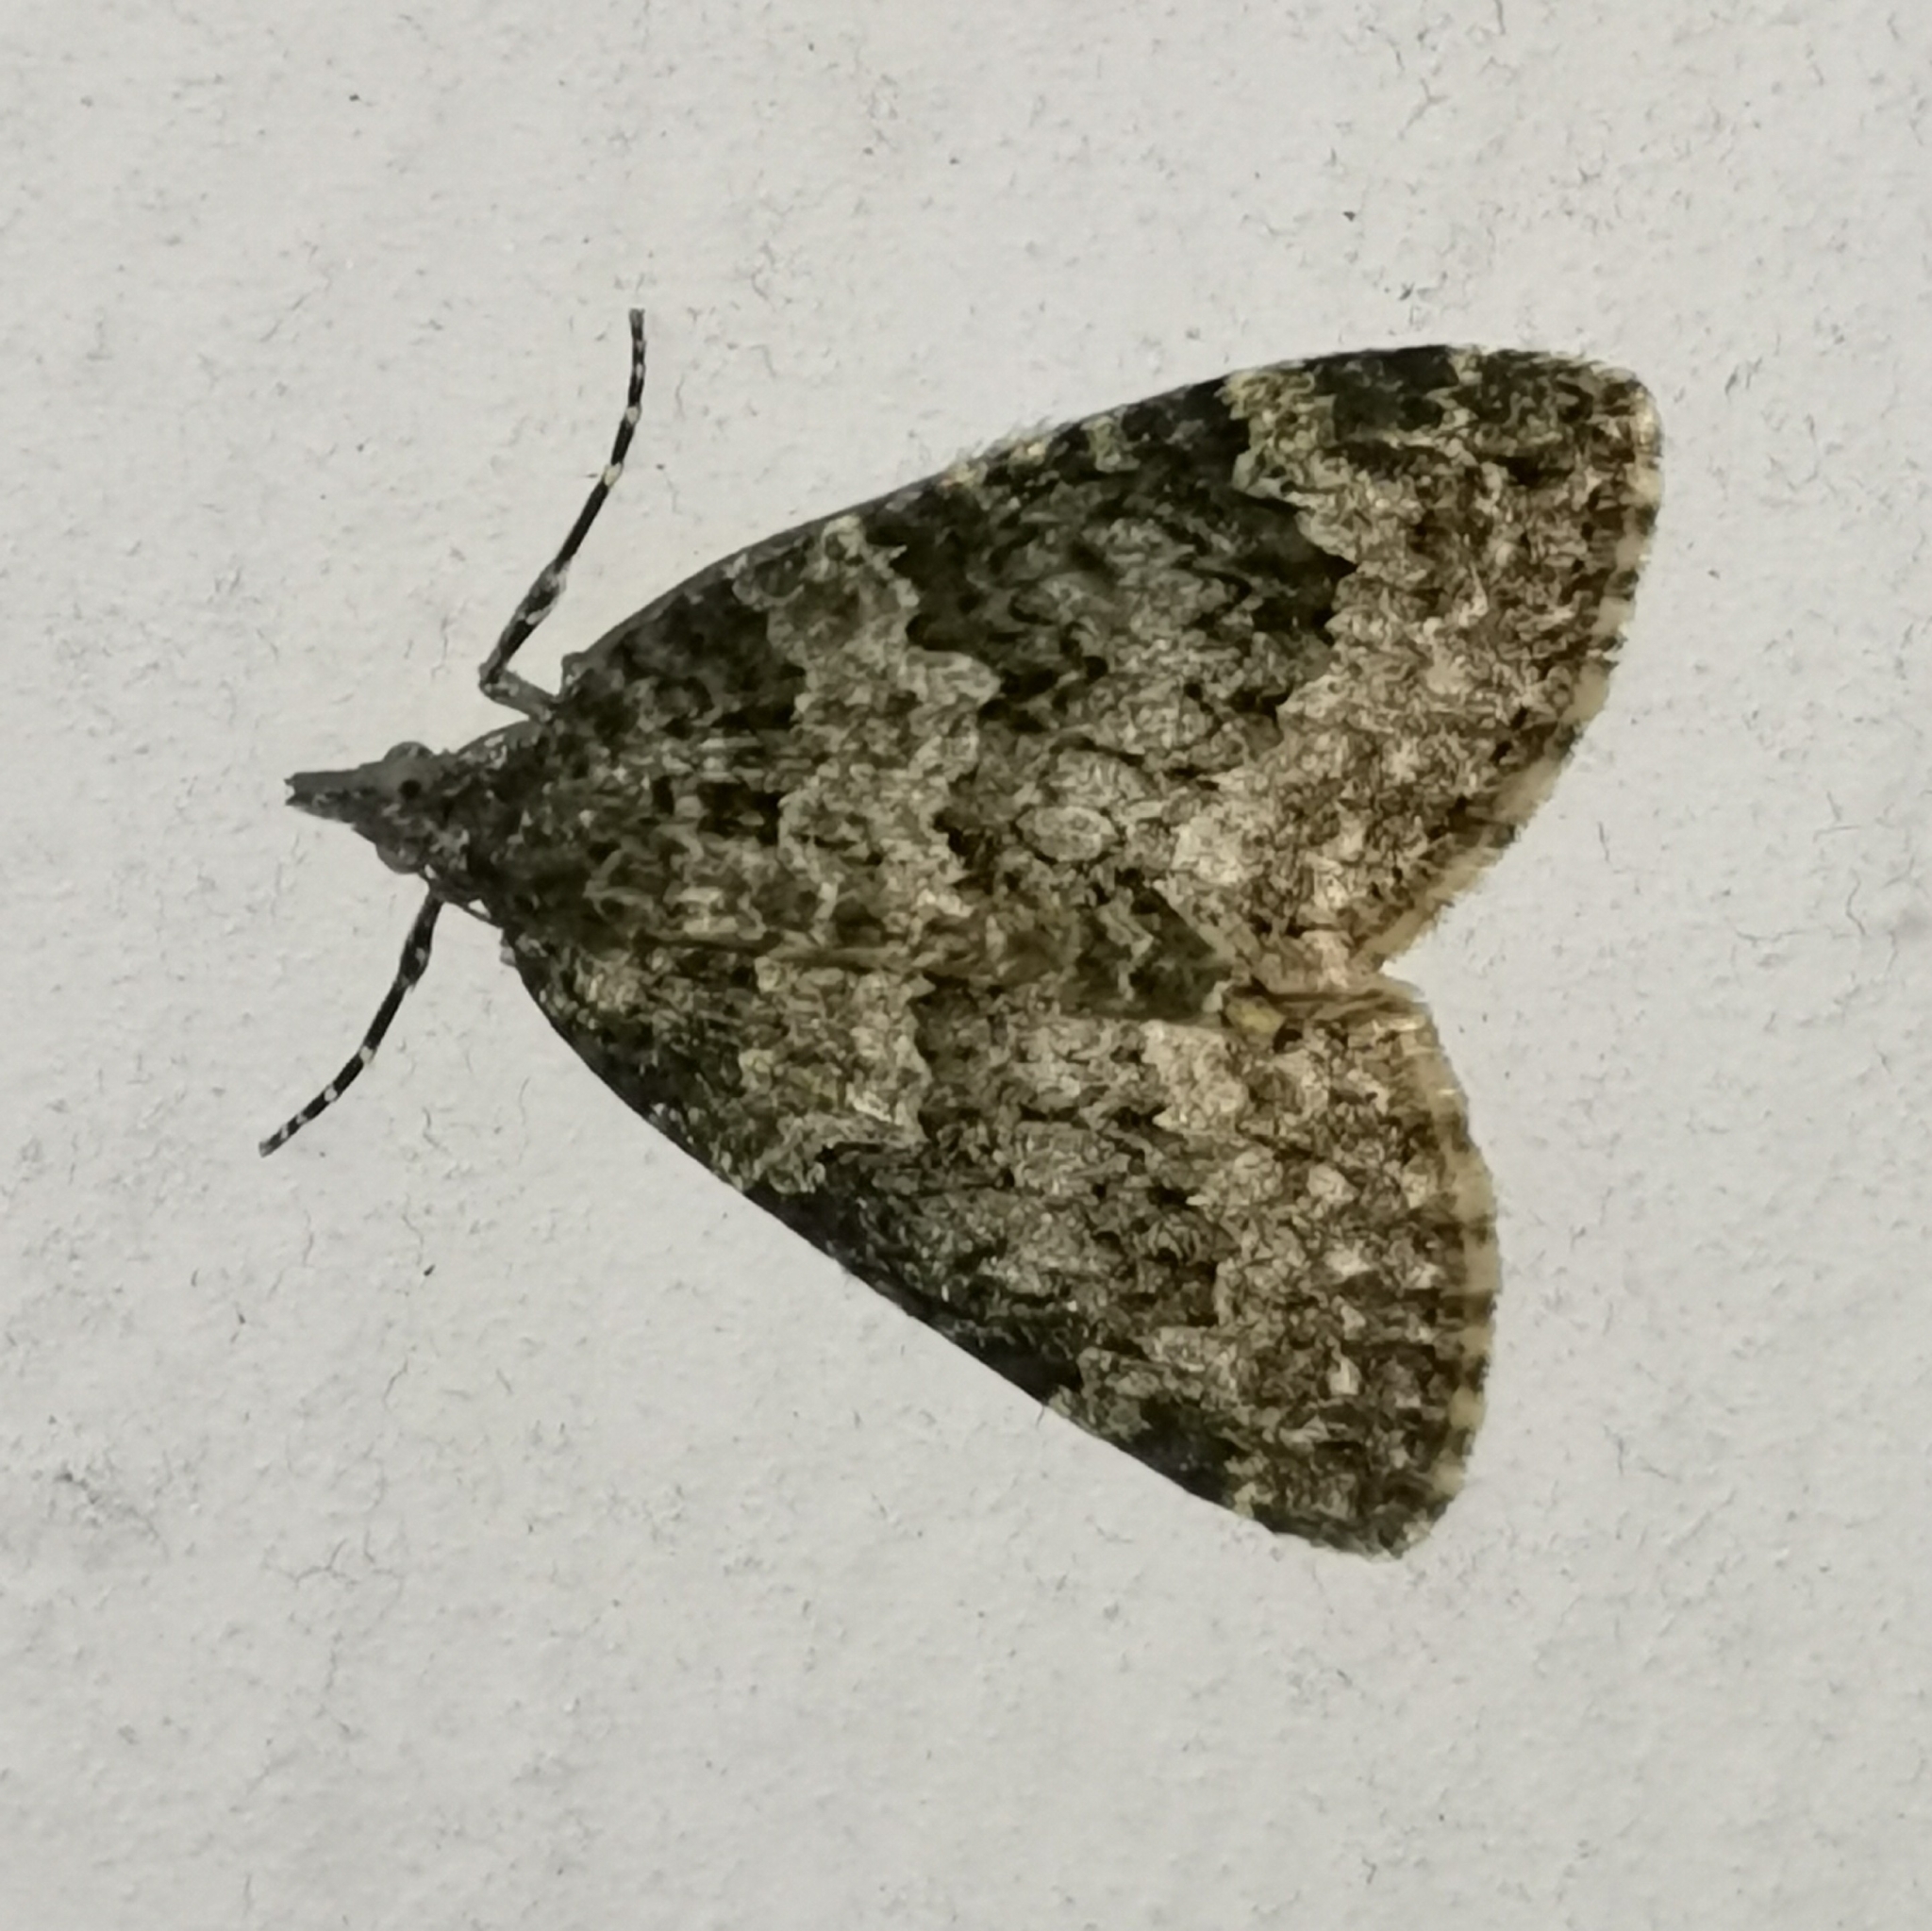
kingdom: Animalia
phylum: Arthropoda
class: Insecta
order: Lepidoptera
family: Geometridae
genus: Chloroclysta
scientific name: Chloroclysta miata
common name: Autumn green carpet
